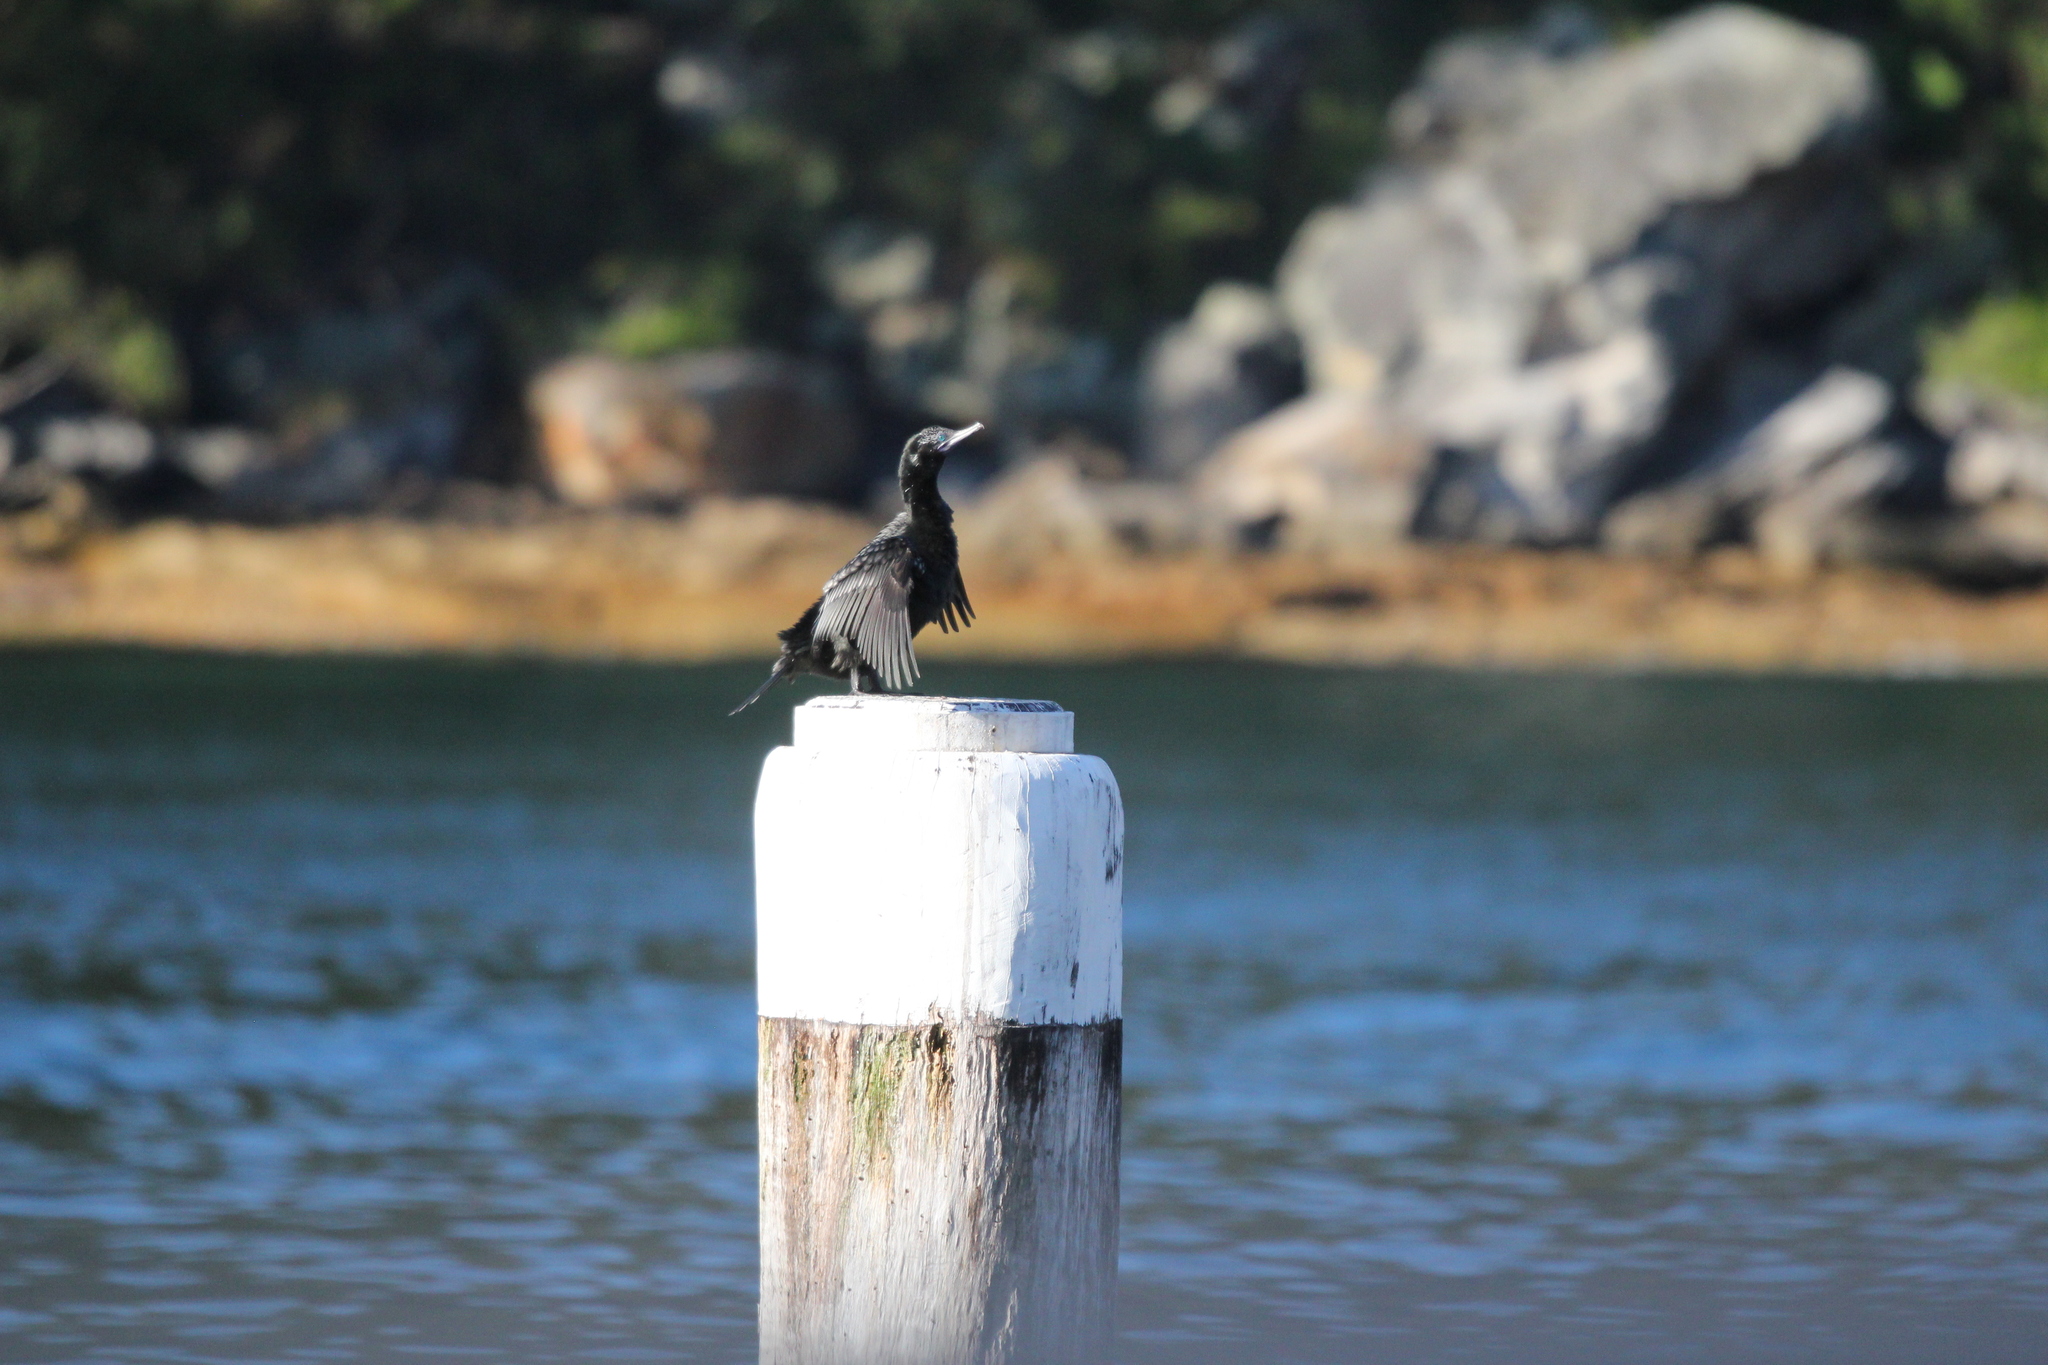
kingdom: Animalia
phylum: Chordata
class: Aves
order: Suliformes
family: Phalacrocoracidae
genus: Phalacrocorax
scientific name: Phalacrocorax sulcirostris
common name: Little black cormorant
